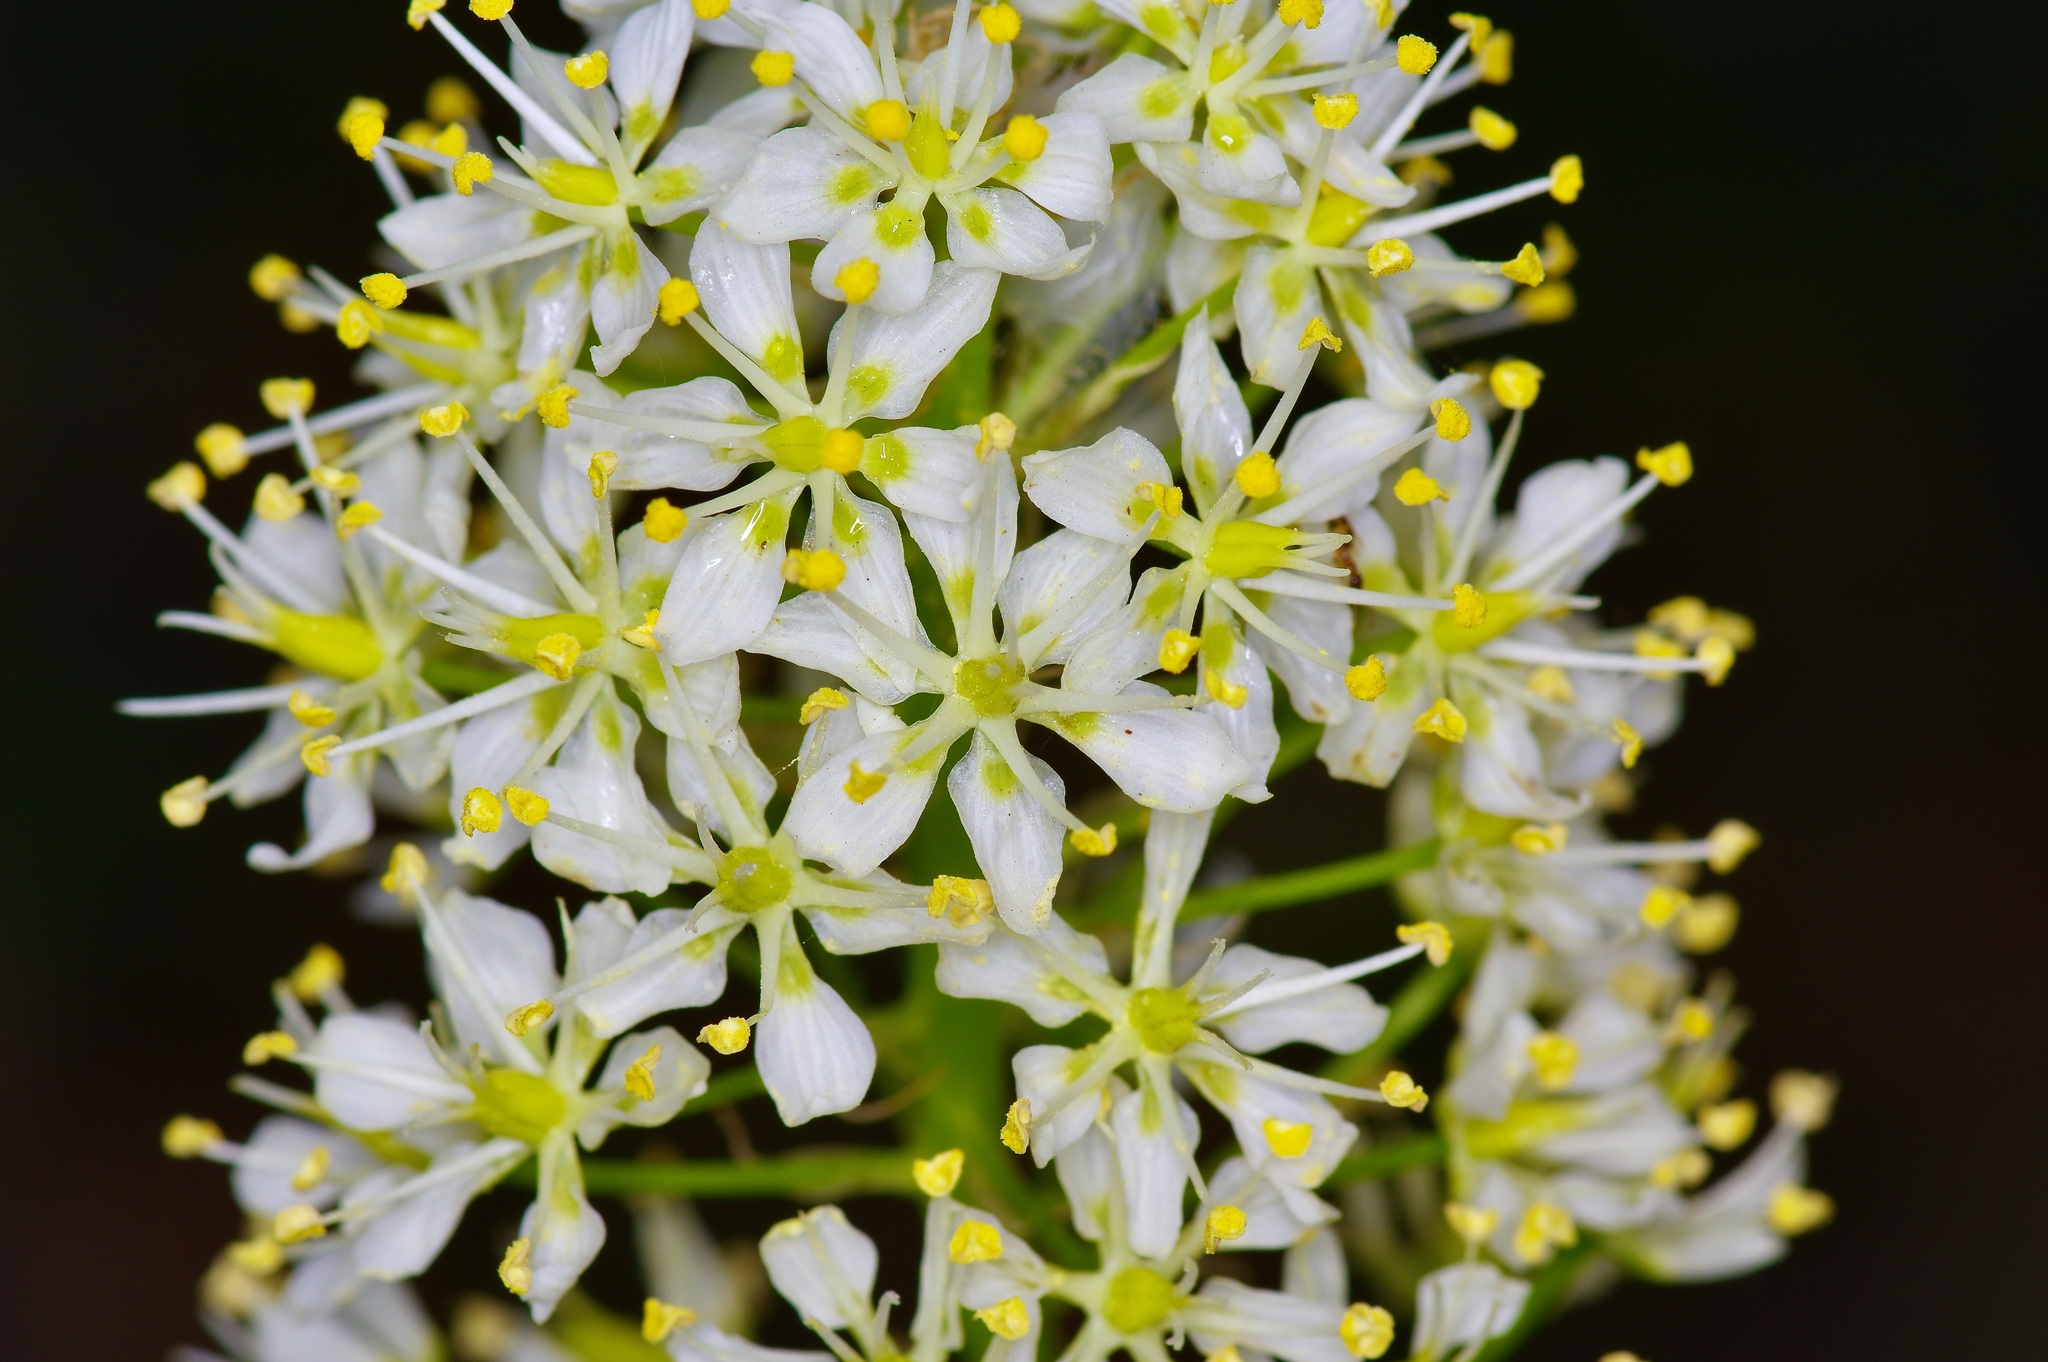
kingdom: Plantae
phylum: Tracheophyta
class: Liliopsida
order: Liliales
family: Melanthiaceae
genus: Toxicoscordion
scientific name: Toxicoscordion nuttallii
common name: Poison sego
